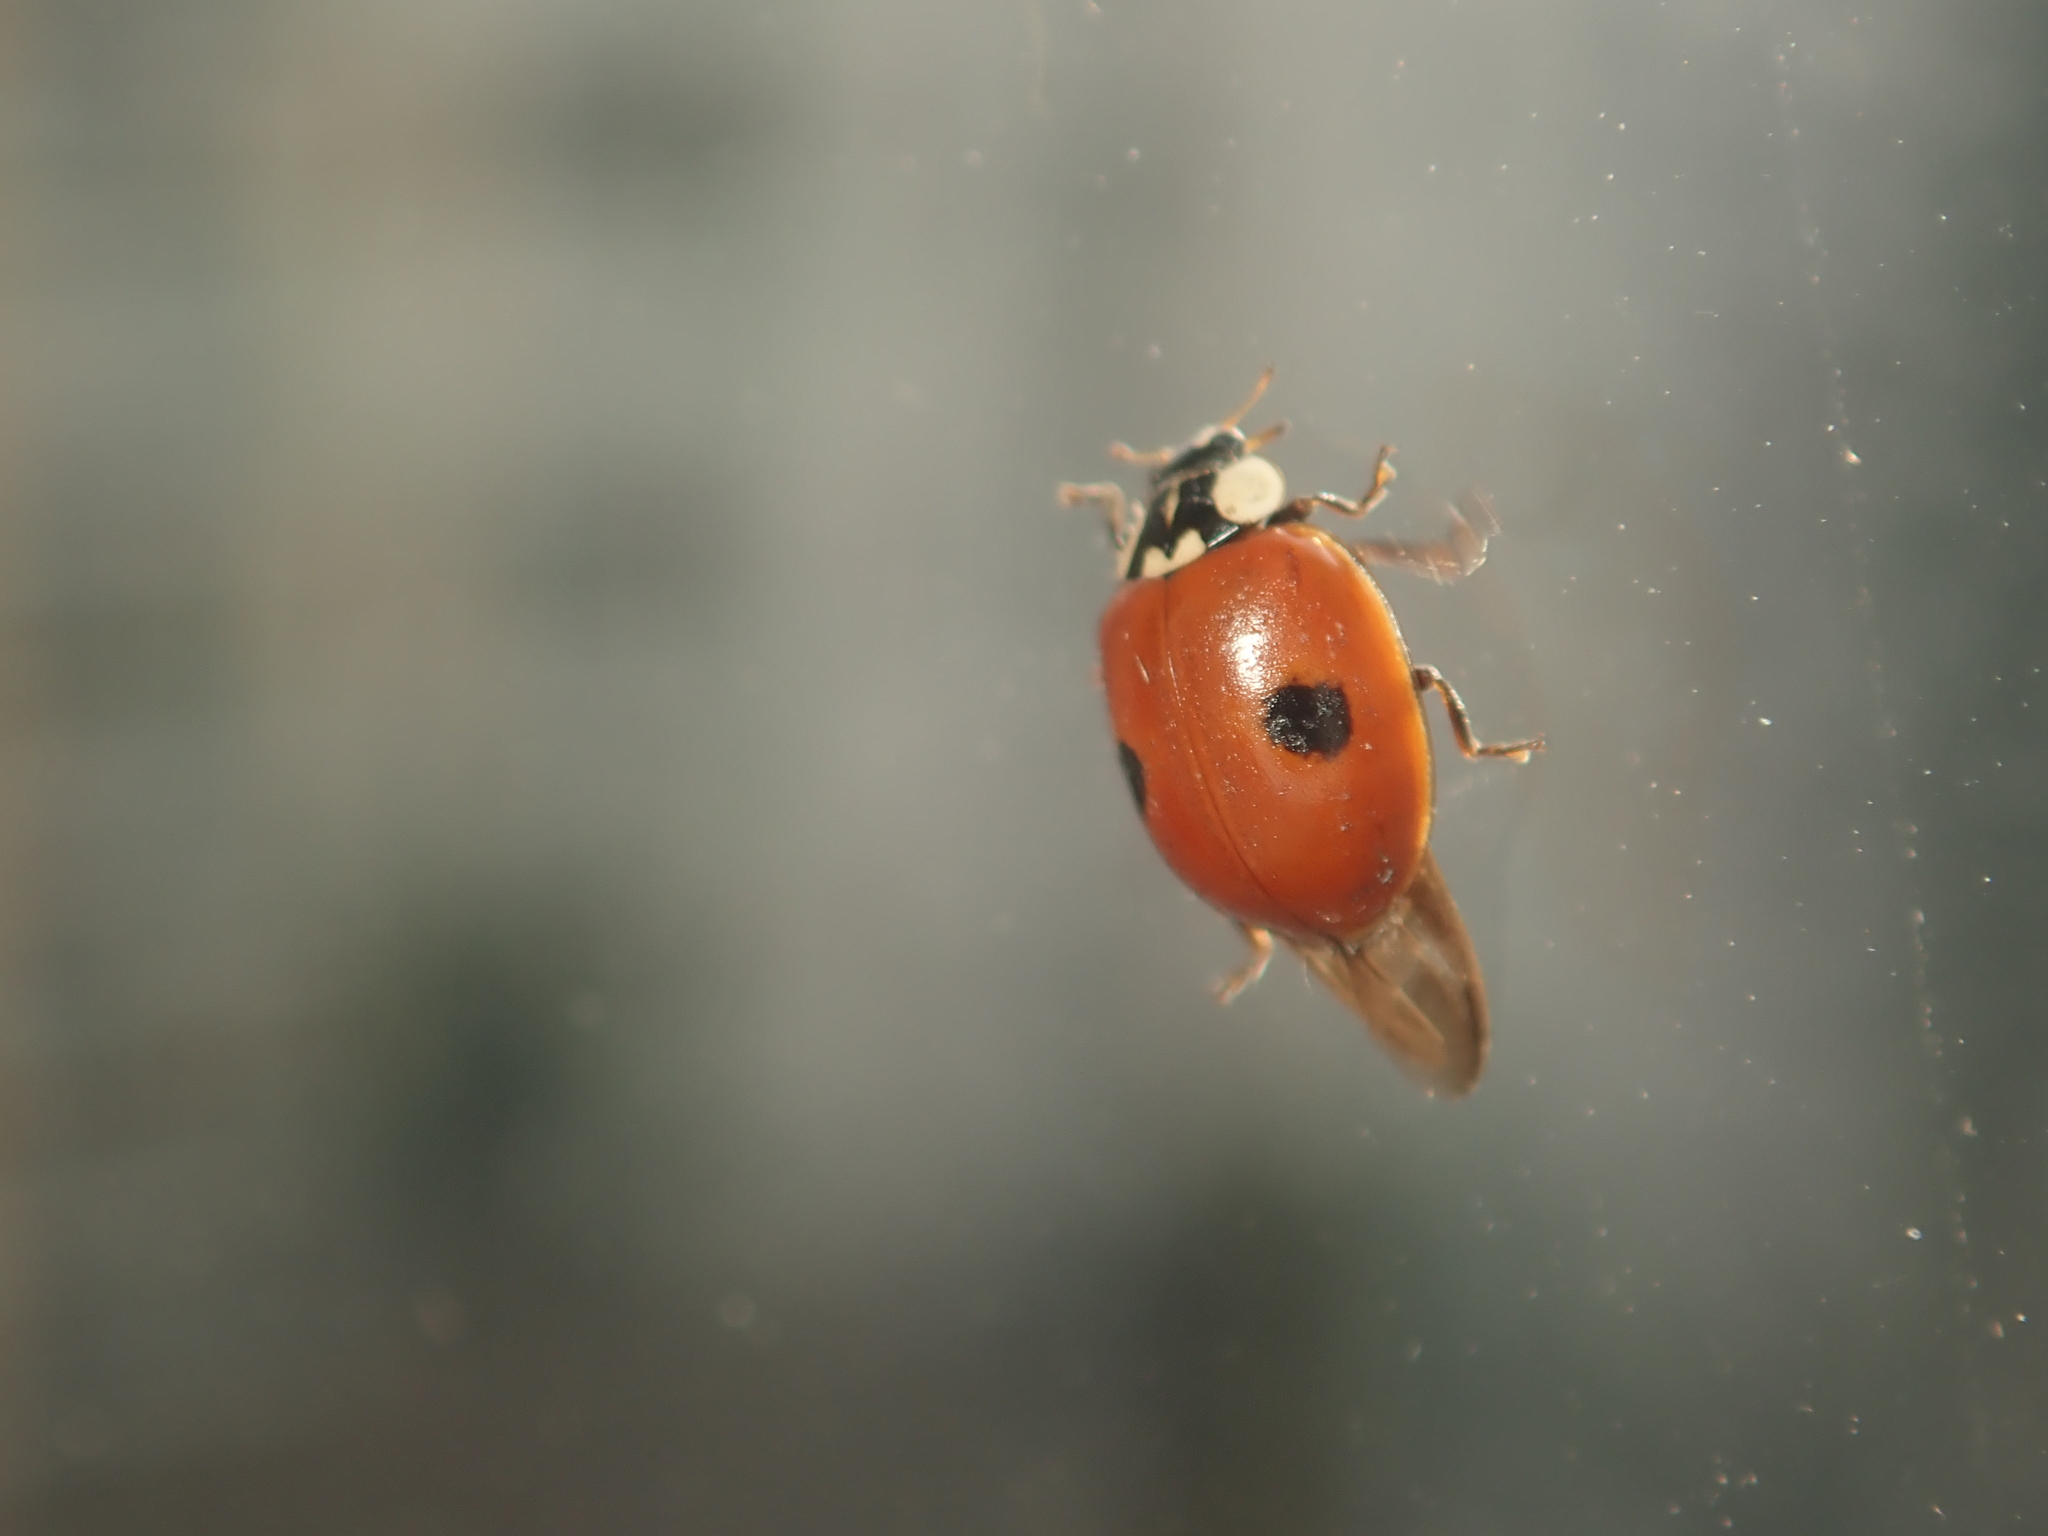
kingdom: Animalia
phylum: Arthropoda
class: Insecta
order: Coleoptera
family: Coccinellidae
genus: Adalia
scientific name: Adalia bipunctata
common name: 2-spot ladybird
